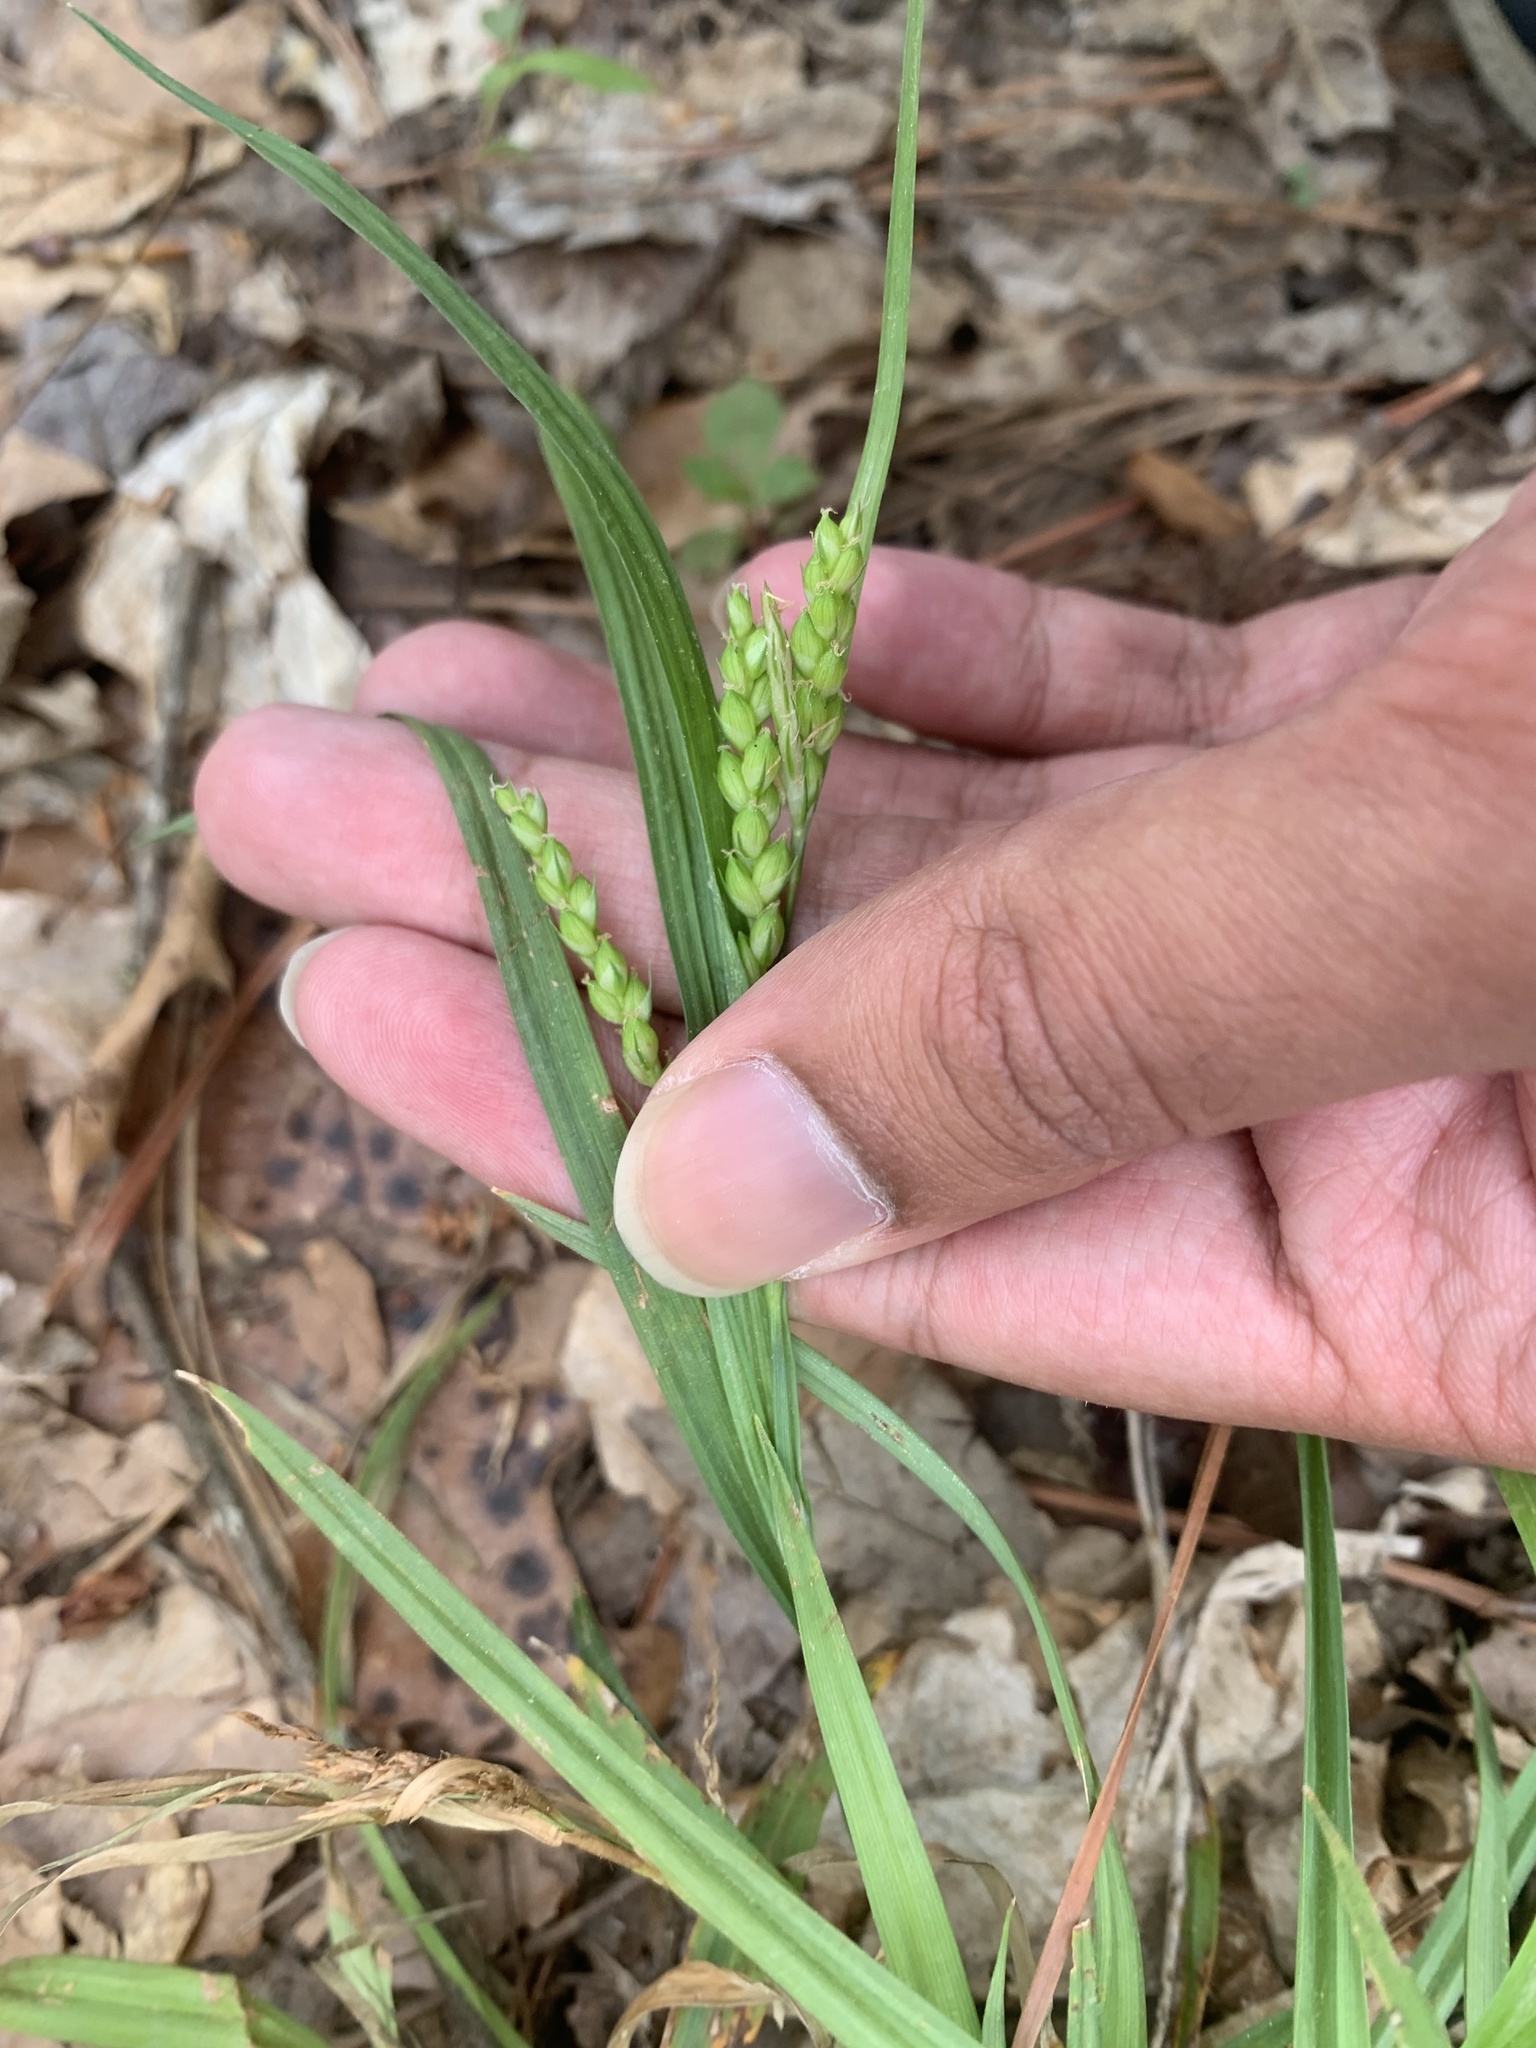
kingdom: Plantae
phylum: Tracheophyta
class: Liliopsida
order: Poales
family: Cyperaceae
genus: Carex
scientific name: Carex pigra
